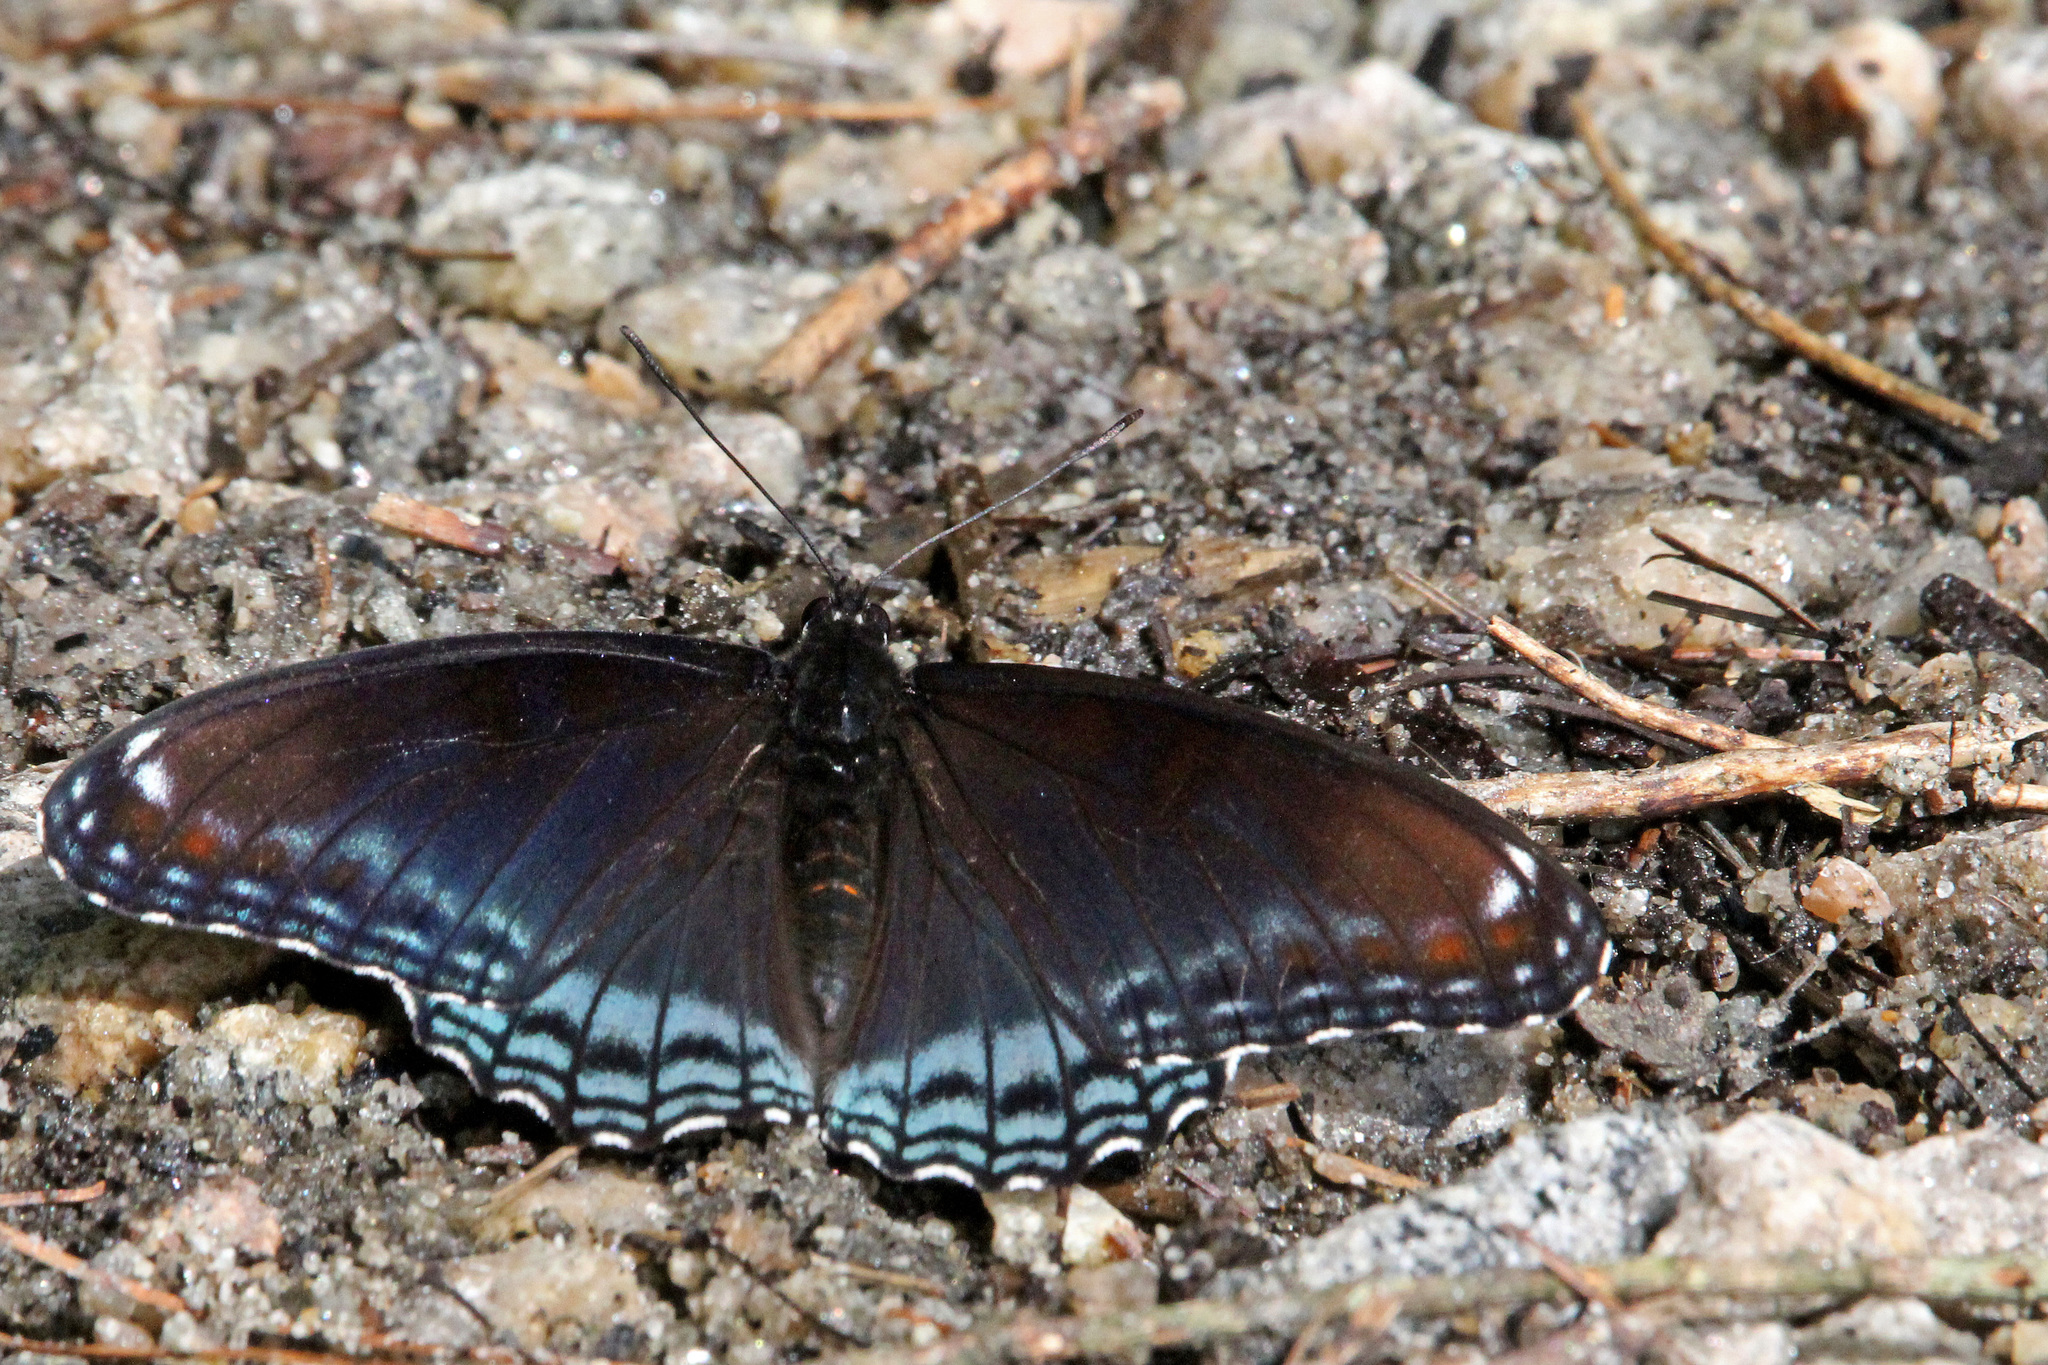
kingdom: Animalia
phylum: Arthropoda
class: Insecta
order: Lepidoptera
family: Nymphalidae
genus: Limenitis
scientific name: Limenitis astyanax
